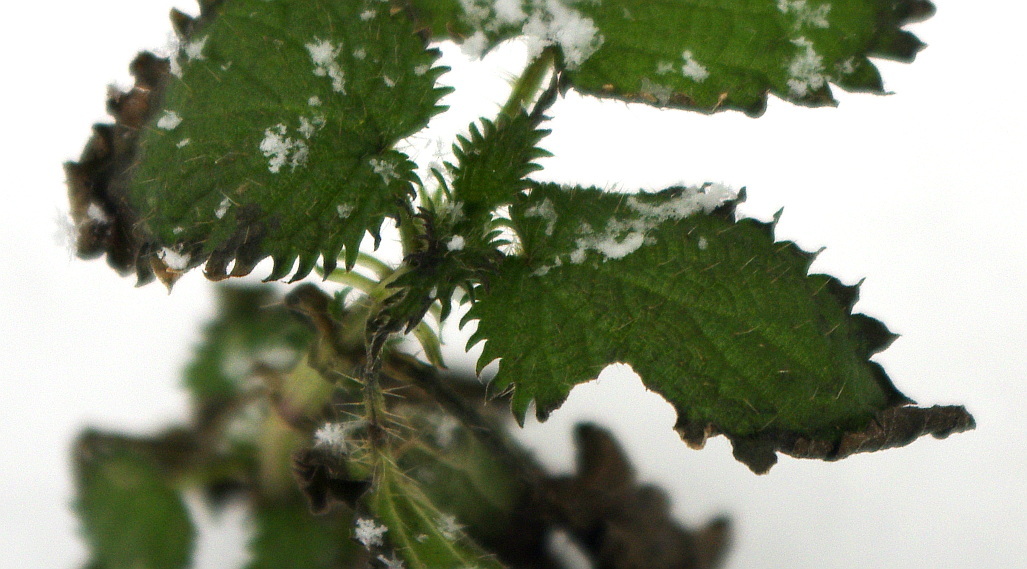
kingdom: Plantae
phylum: Tracheophyta
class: Magnoliopsida
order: Rosales
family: Urticaceae
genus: Urtica
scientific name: Urtica urens
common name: Dwarf nettle
